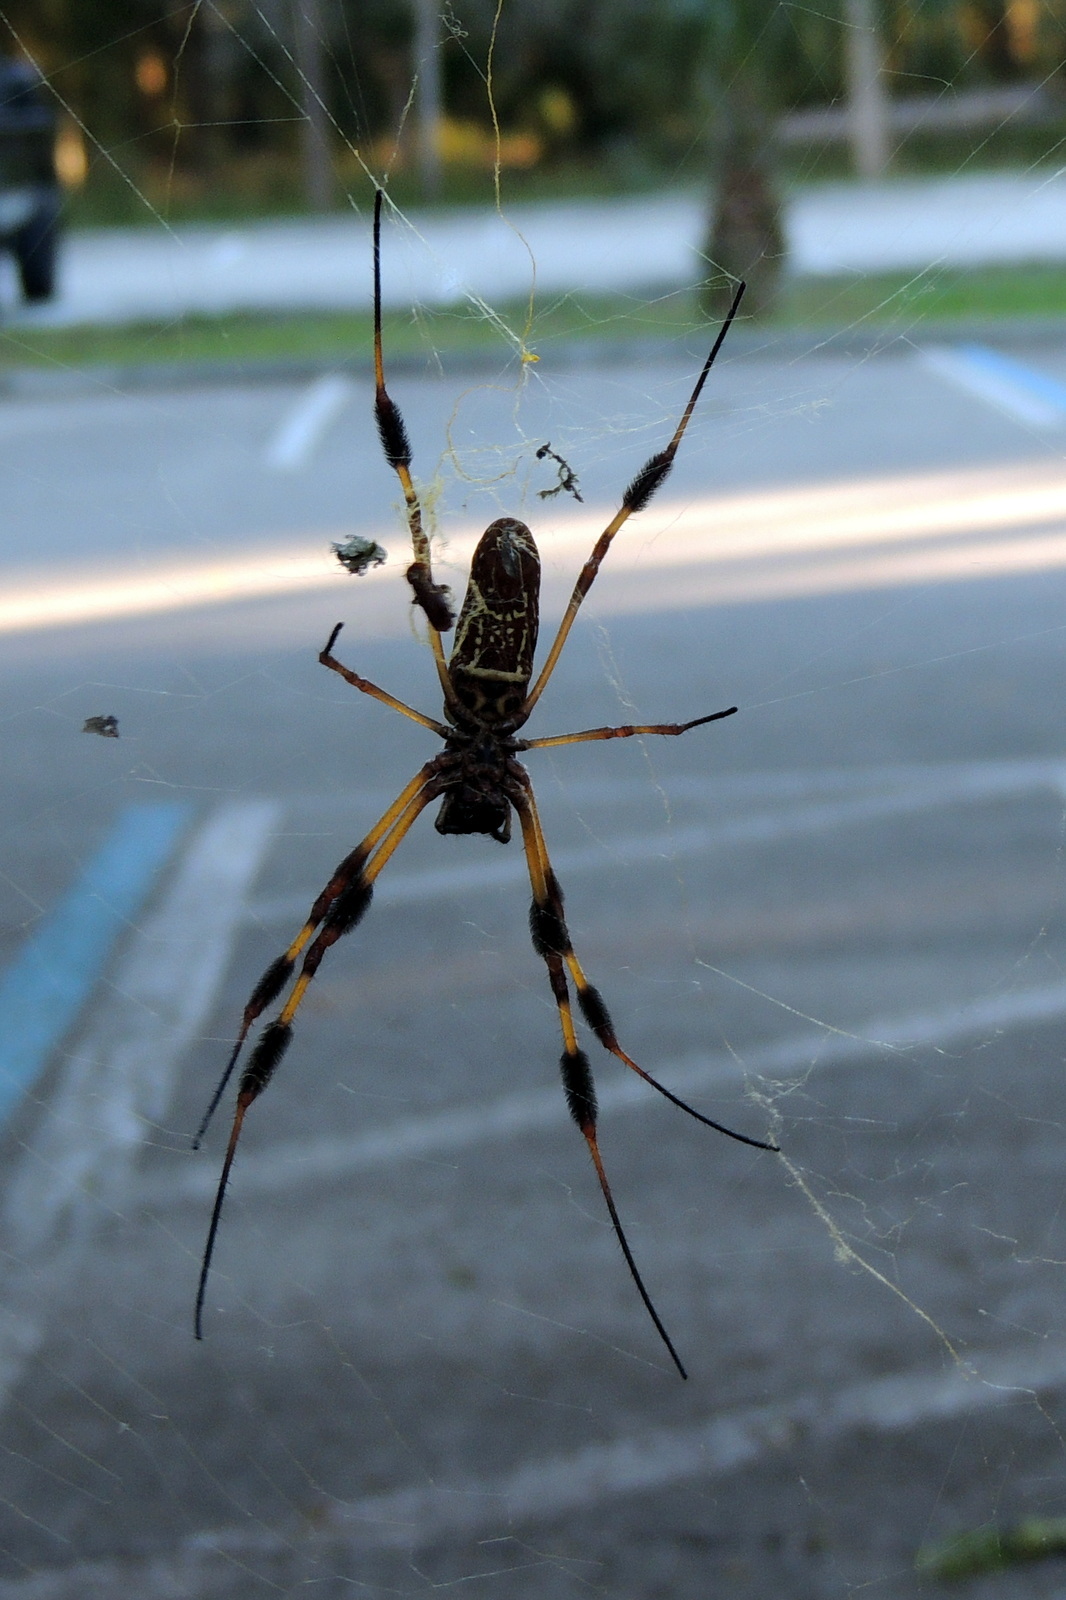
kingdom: Animalia
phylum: Arthropoda
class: Arachnida
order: Araneae
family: Araneidae
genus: Trichonephila
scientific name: Trichonephila clavipes
